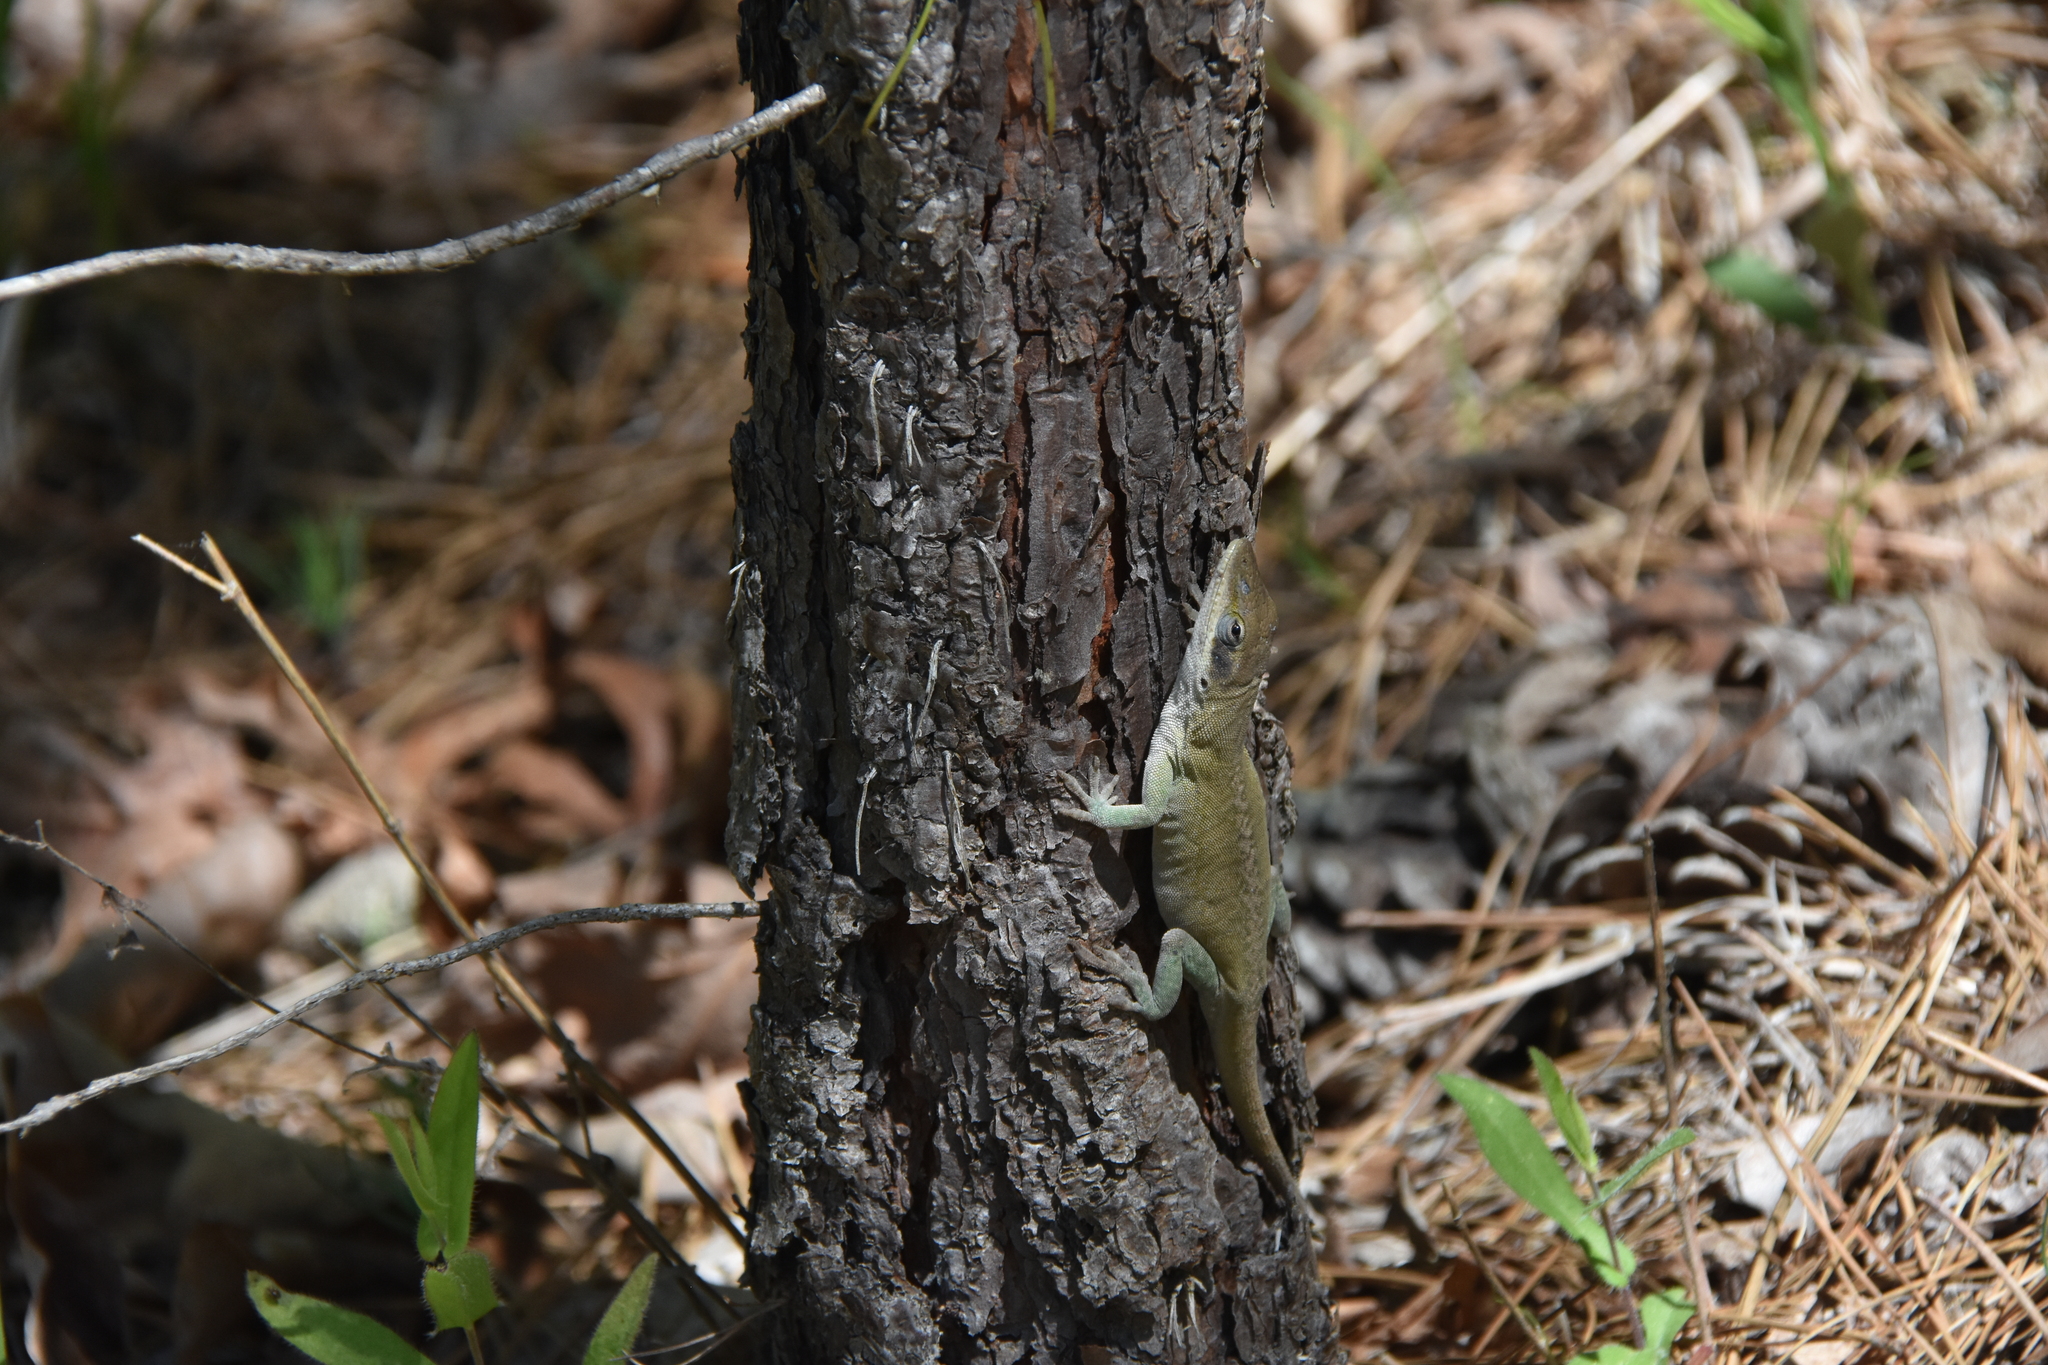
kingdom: Animalia
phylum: Chordata
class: Squamata
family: Dactyloidae
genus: Anolis
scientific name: Anolis carolinensis
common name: Green anole
